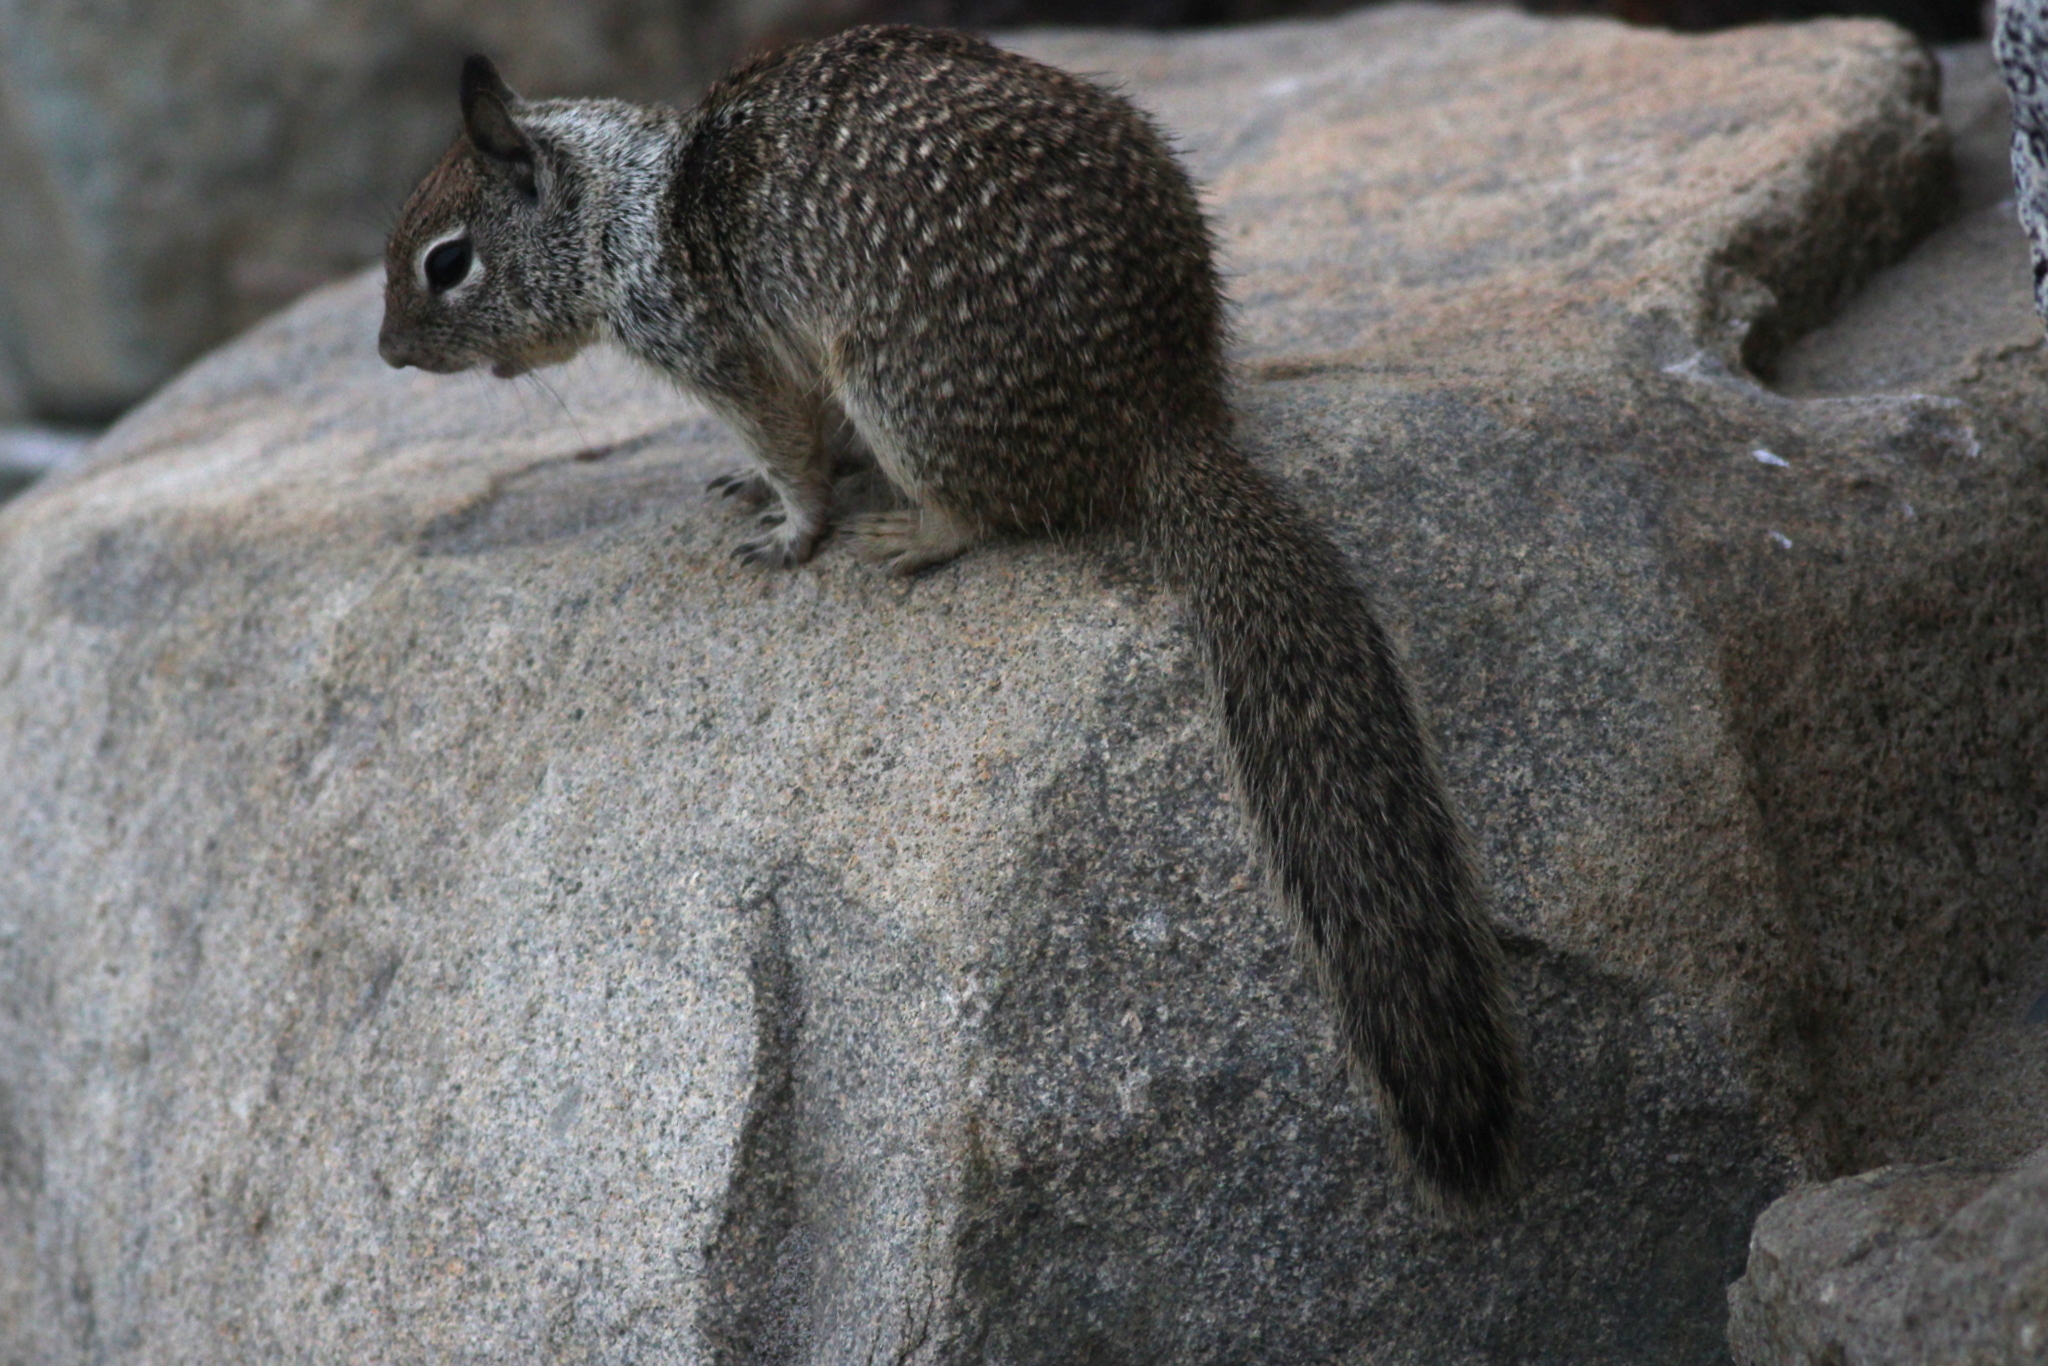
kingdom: Animalia
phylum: Chordata
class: Mammalia
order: Rodentia
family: Sciuridae
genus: Otospermophilus
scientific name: Otospermophilus beecheyi
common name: California ground squirrel
